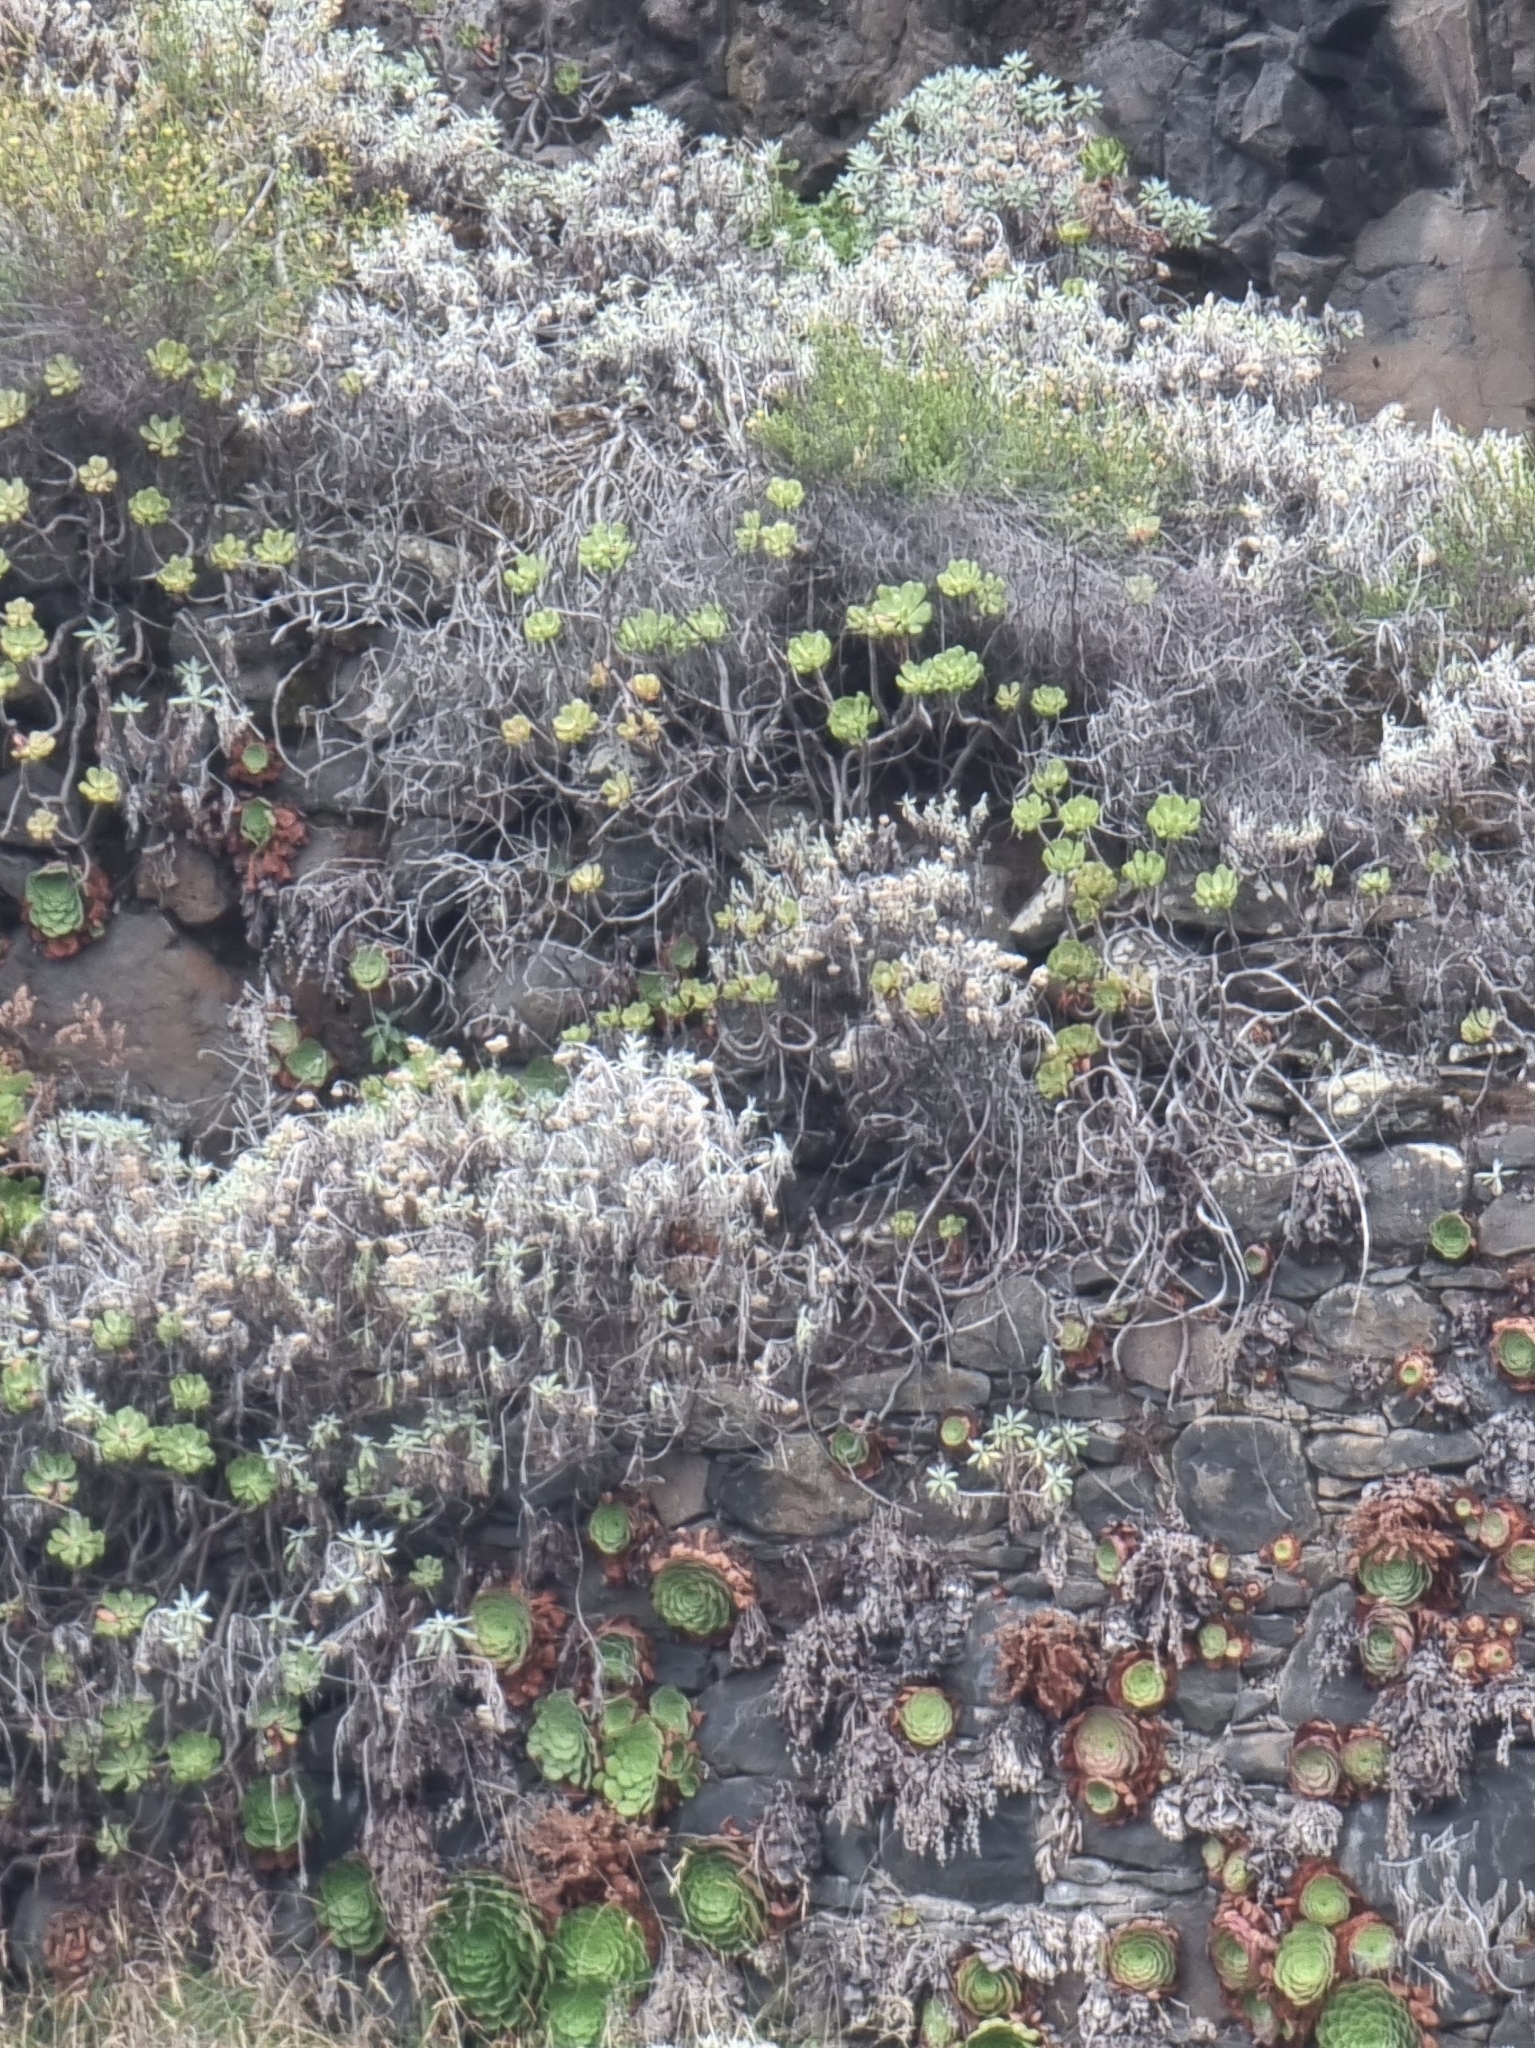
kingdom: Plantae
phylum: Tracheophyta
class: Magnoliopsida
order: Asterales
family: Asteraceae
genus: Helichrysum
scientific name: Helichrysum melaleucum
